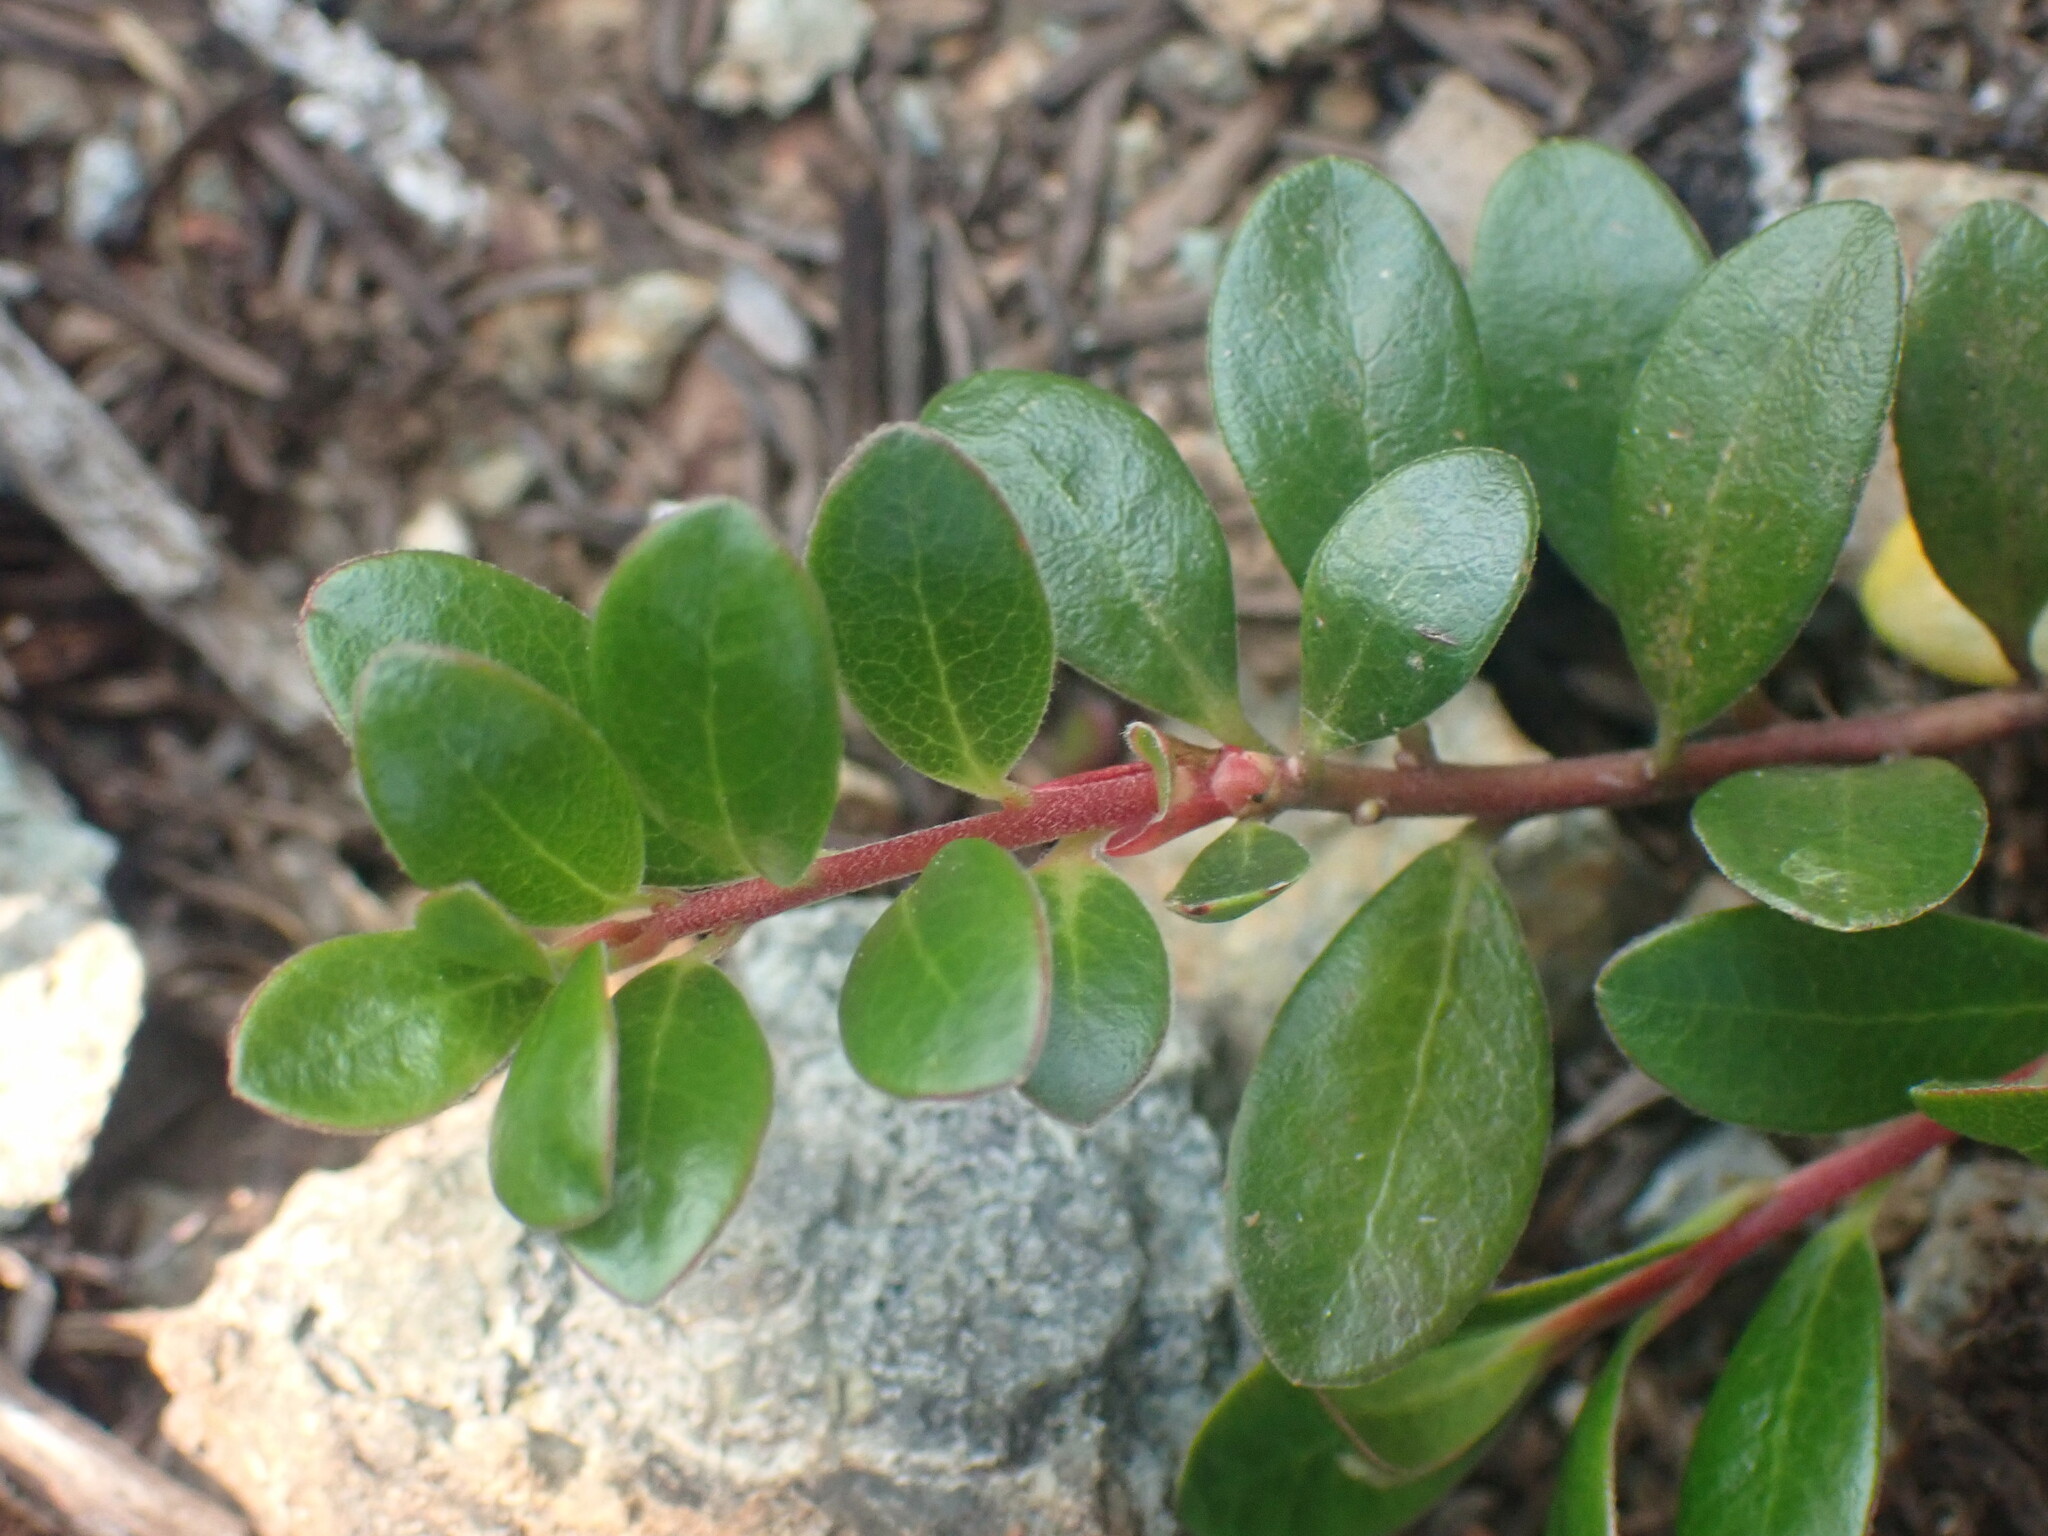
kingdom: Plantae
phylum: Tracheophyta
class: Magnoliopsida
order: Ericales
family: Ericaceae
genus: Arctostaphylos
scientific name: Arctostaphylos uva-ursi
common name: Bearberry
